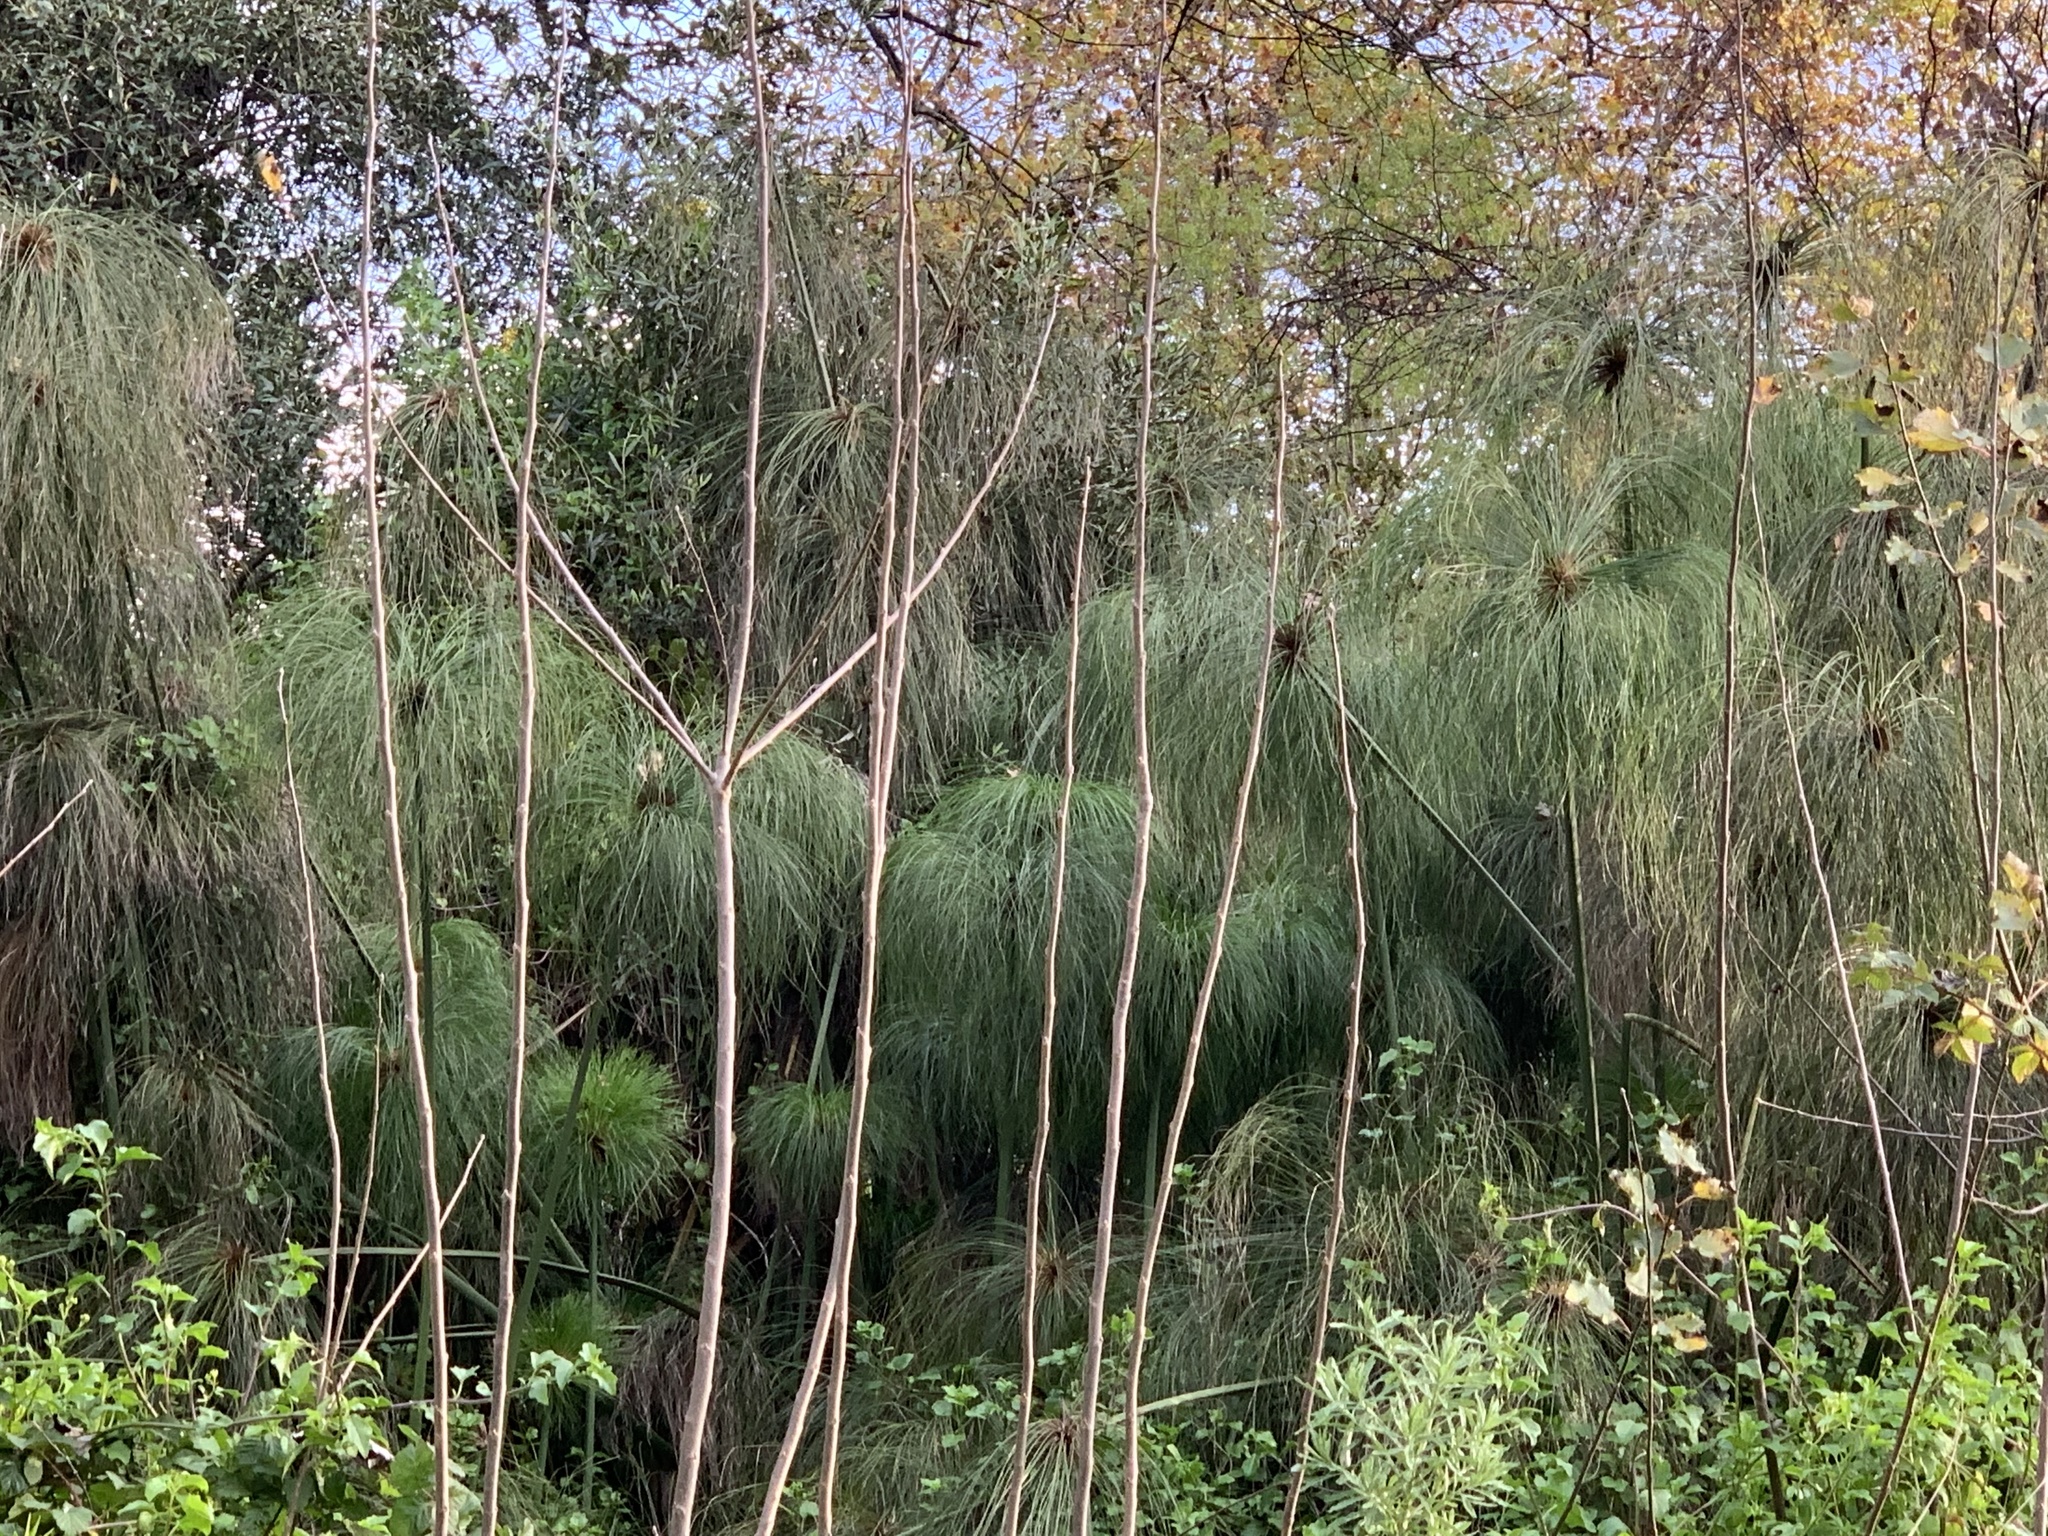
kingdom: Plantae
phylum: Tracheophyta
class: Liliopsida
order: Poales
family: Cyperaceae
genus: Cyperus
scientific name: Cyperus papyrus
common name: Papyrus
